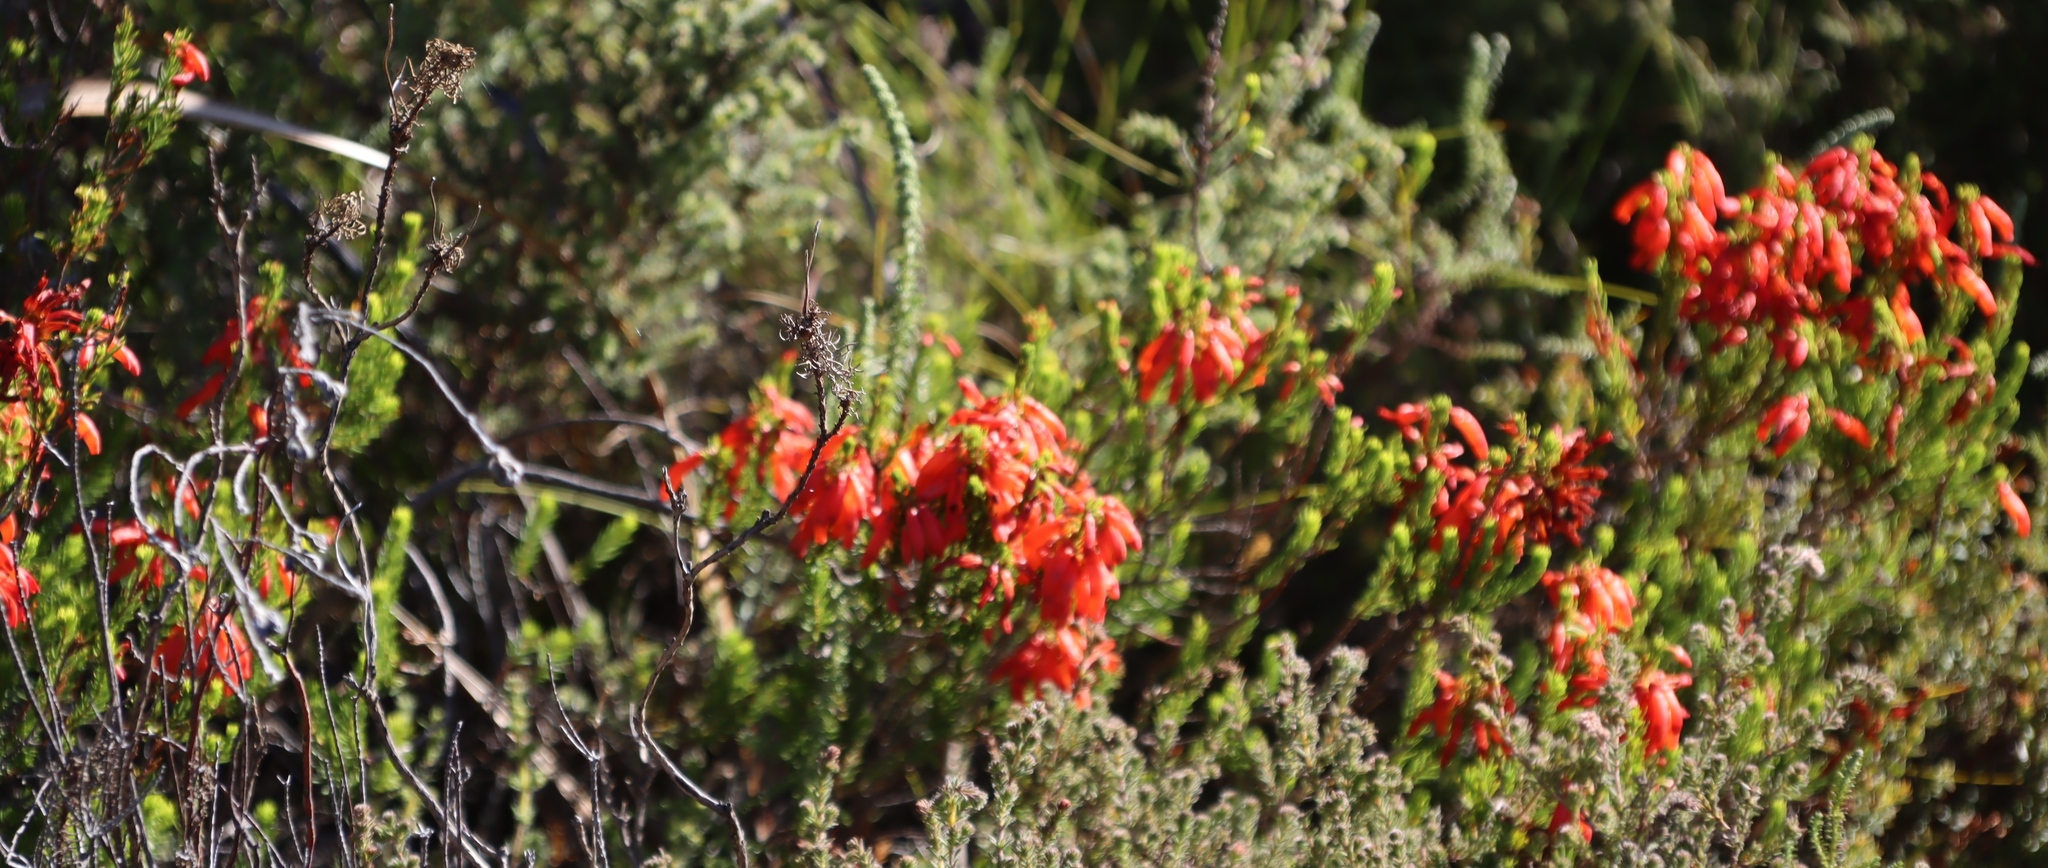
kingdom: Plantae
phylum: Tracheophyta
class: Magnoliopsida
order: Ericales
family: Ericaceae
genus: Erica
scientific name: Erica mammosa
